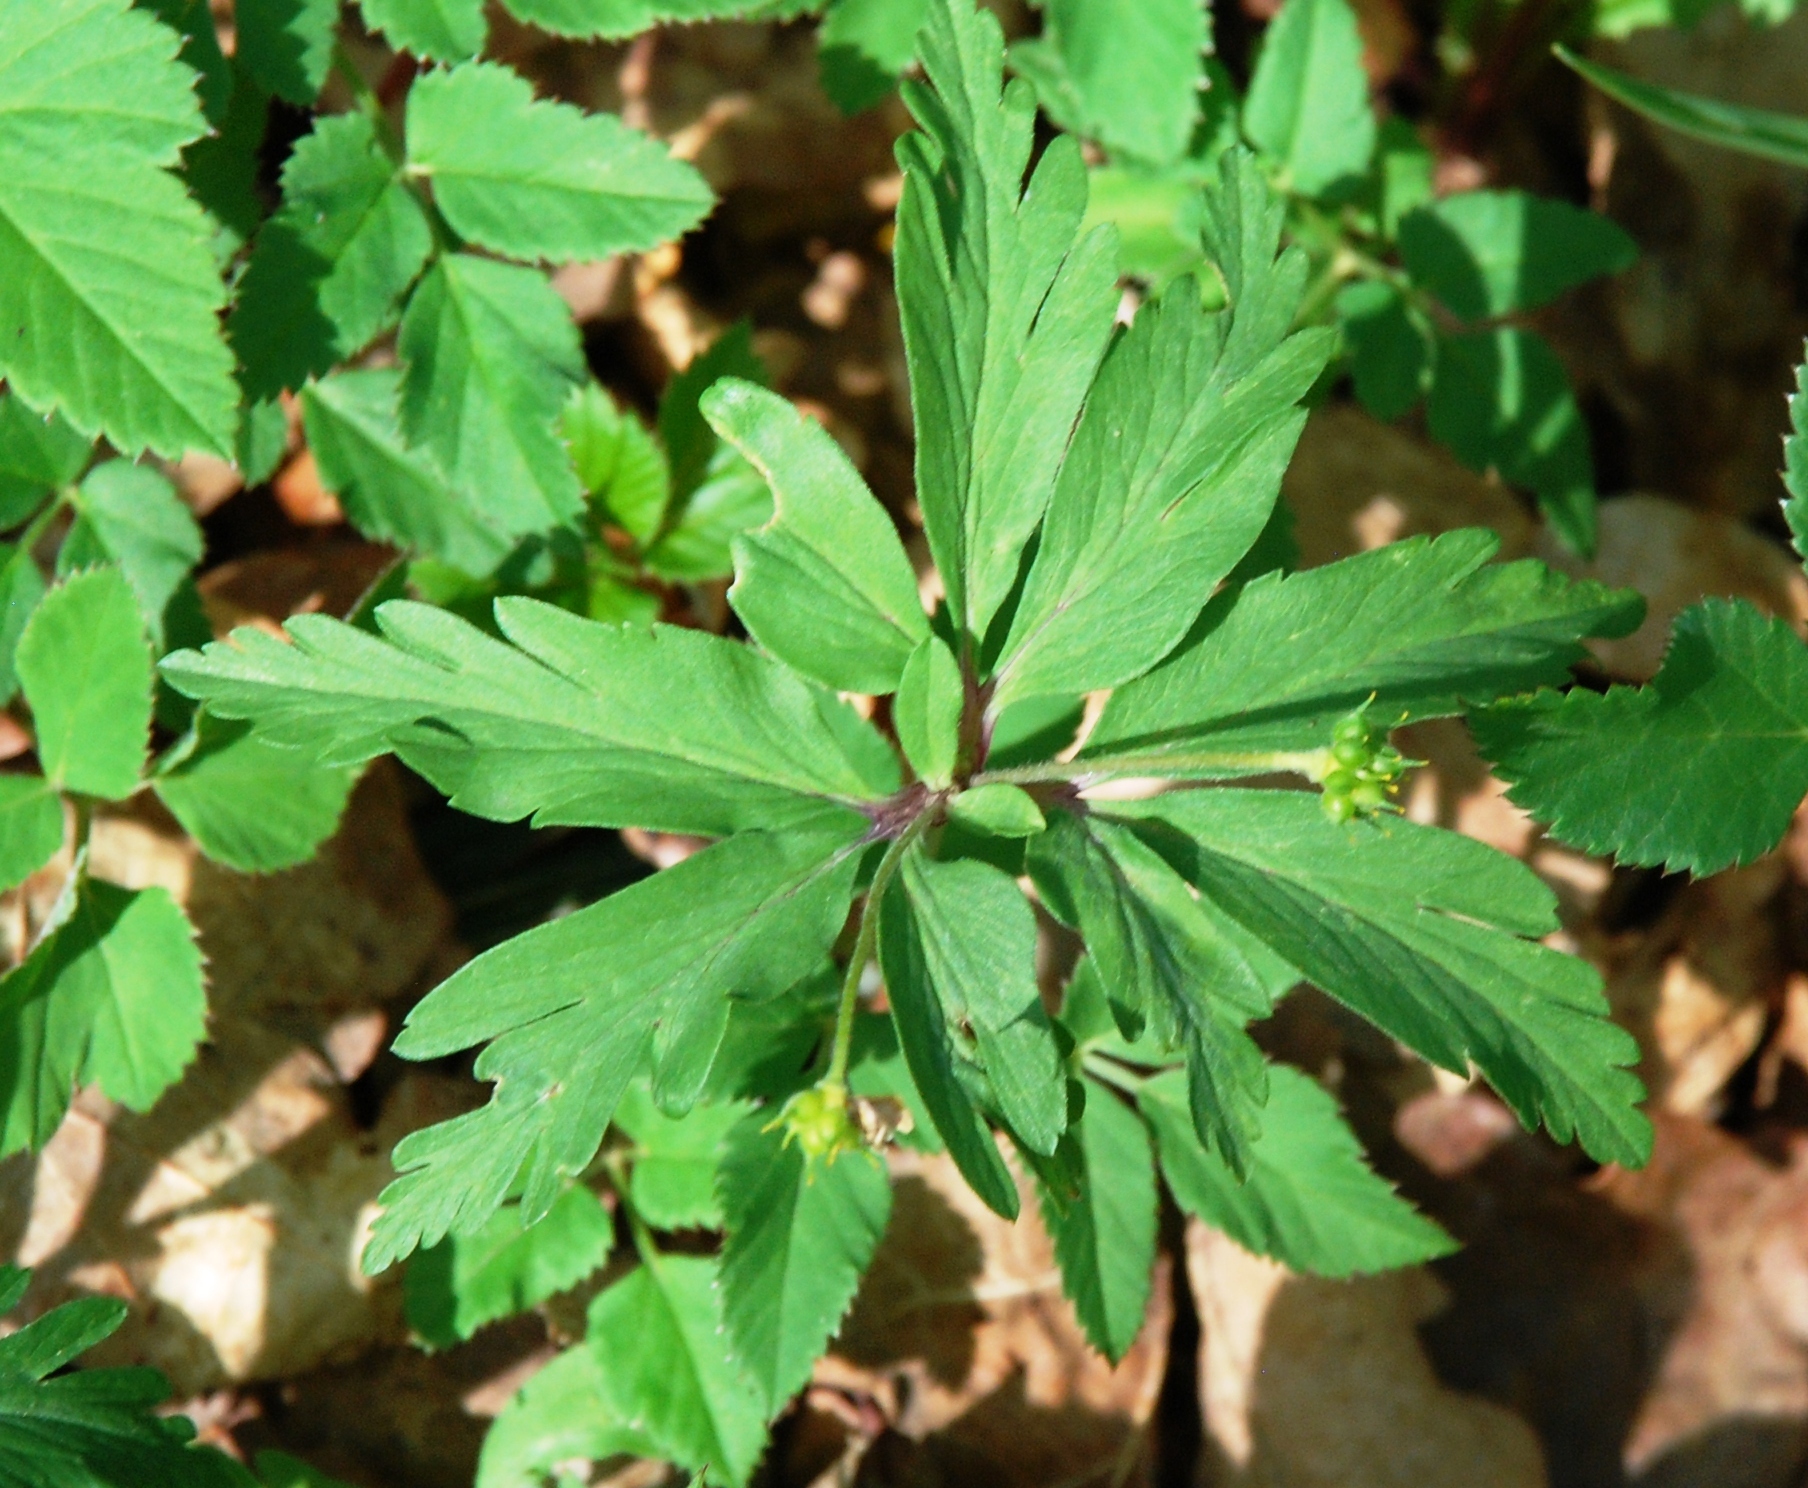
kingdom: Plantae
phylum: Tracheophyta
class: Magnoliopsida
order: Ranunculales
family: Ranunculaceae
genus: Anemone
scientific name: Anemone ranunculoides
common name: Yellow anemone
